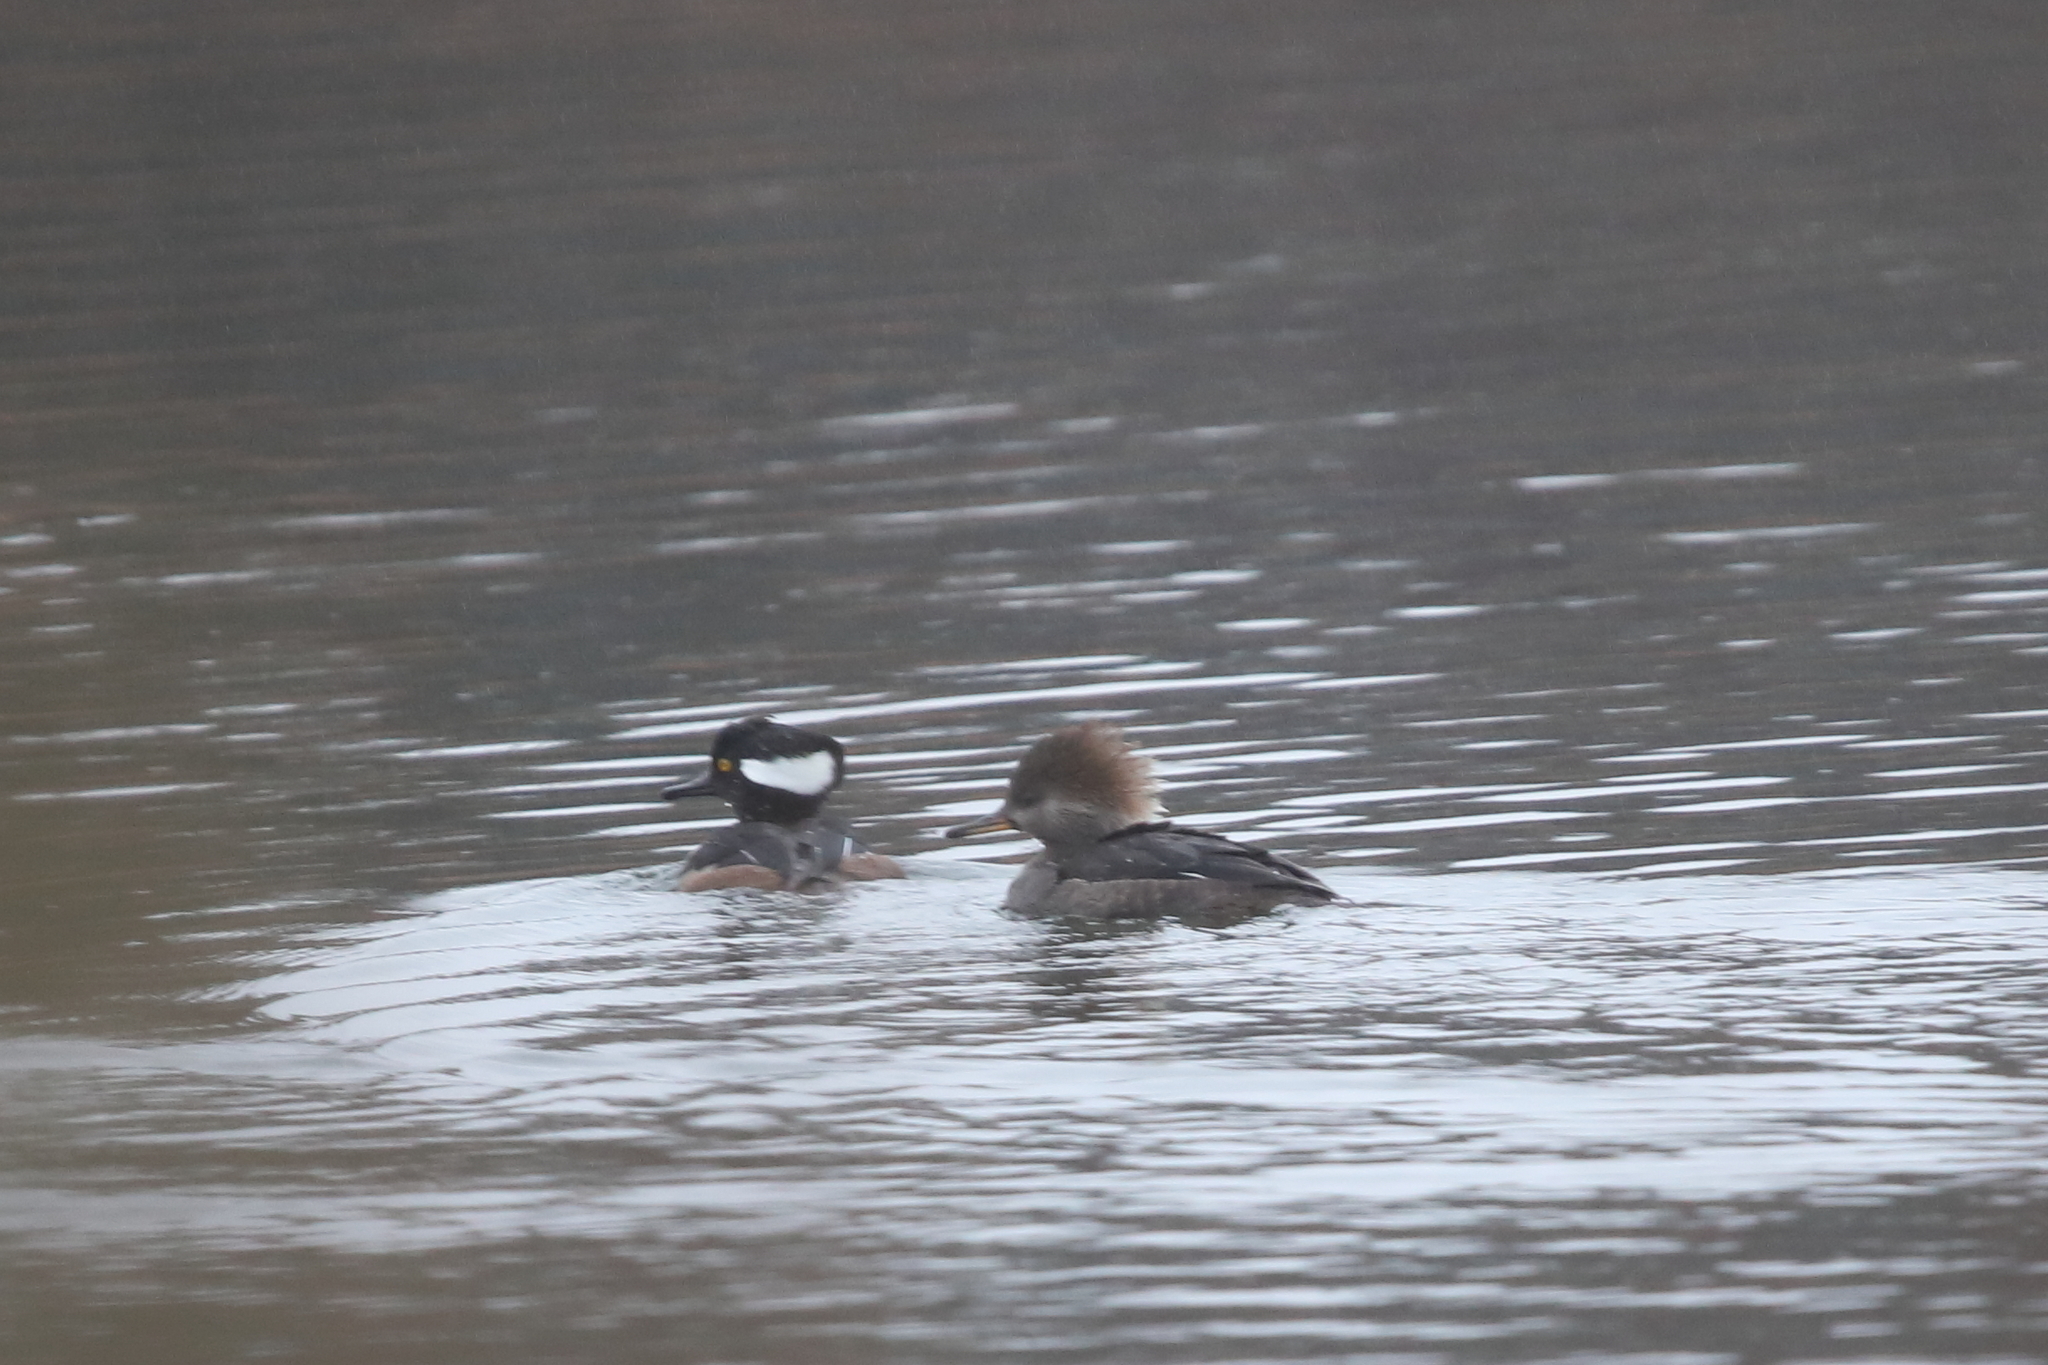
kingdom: Animalia
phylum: Chordata
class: Aves
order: Anseriformes
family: Anatidae
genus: Lophodytes
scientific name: Lophodytes cucullatus
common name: Hooded merganser
